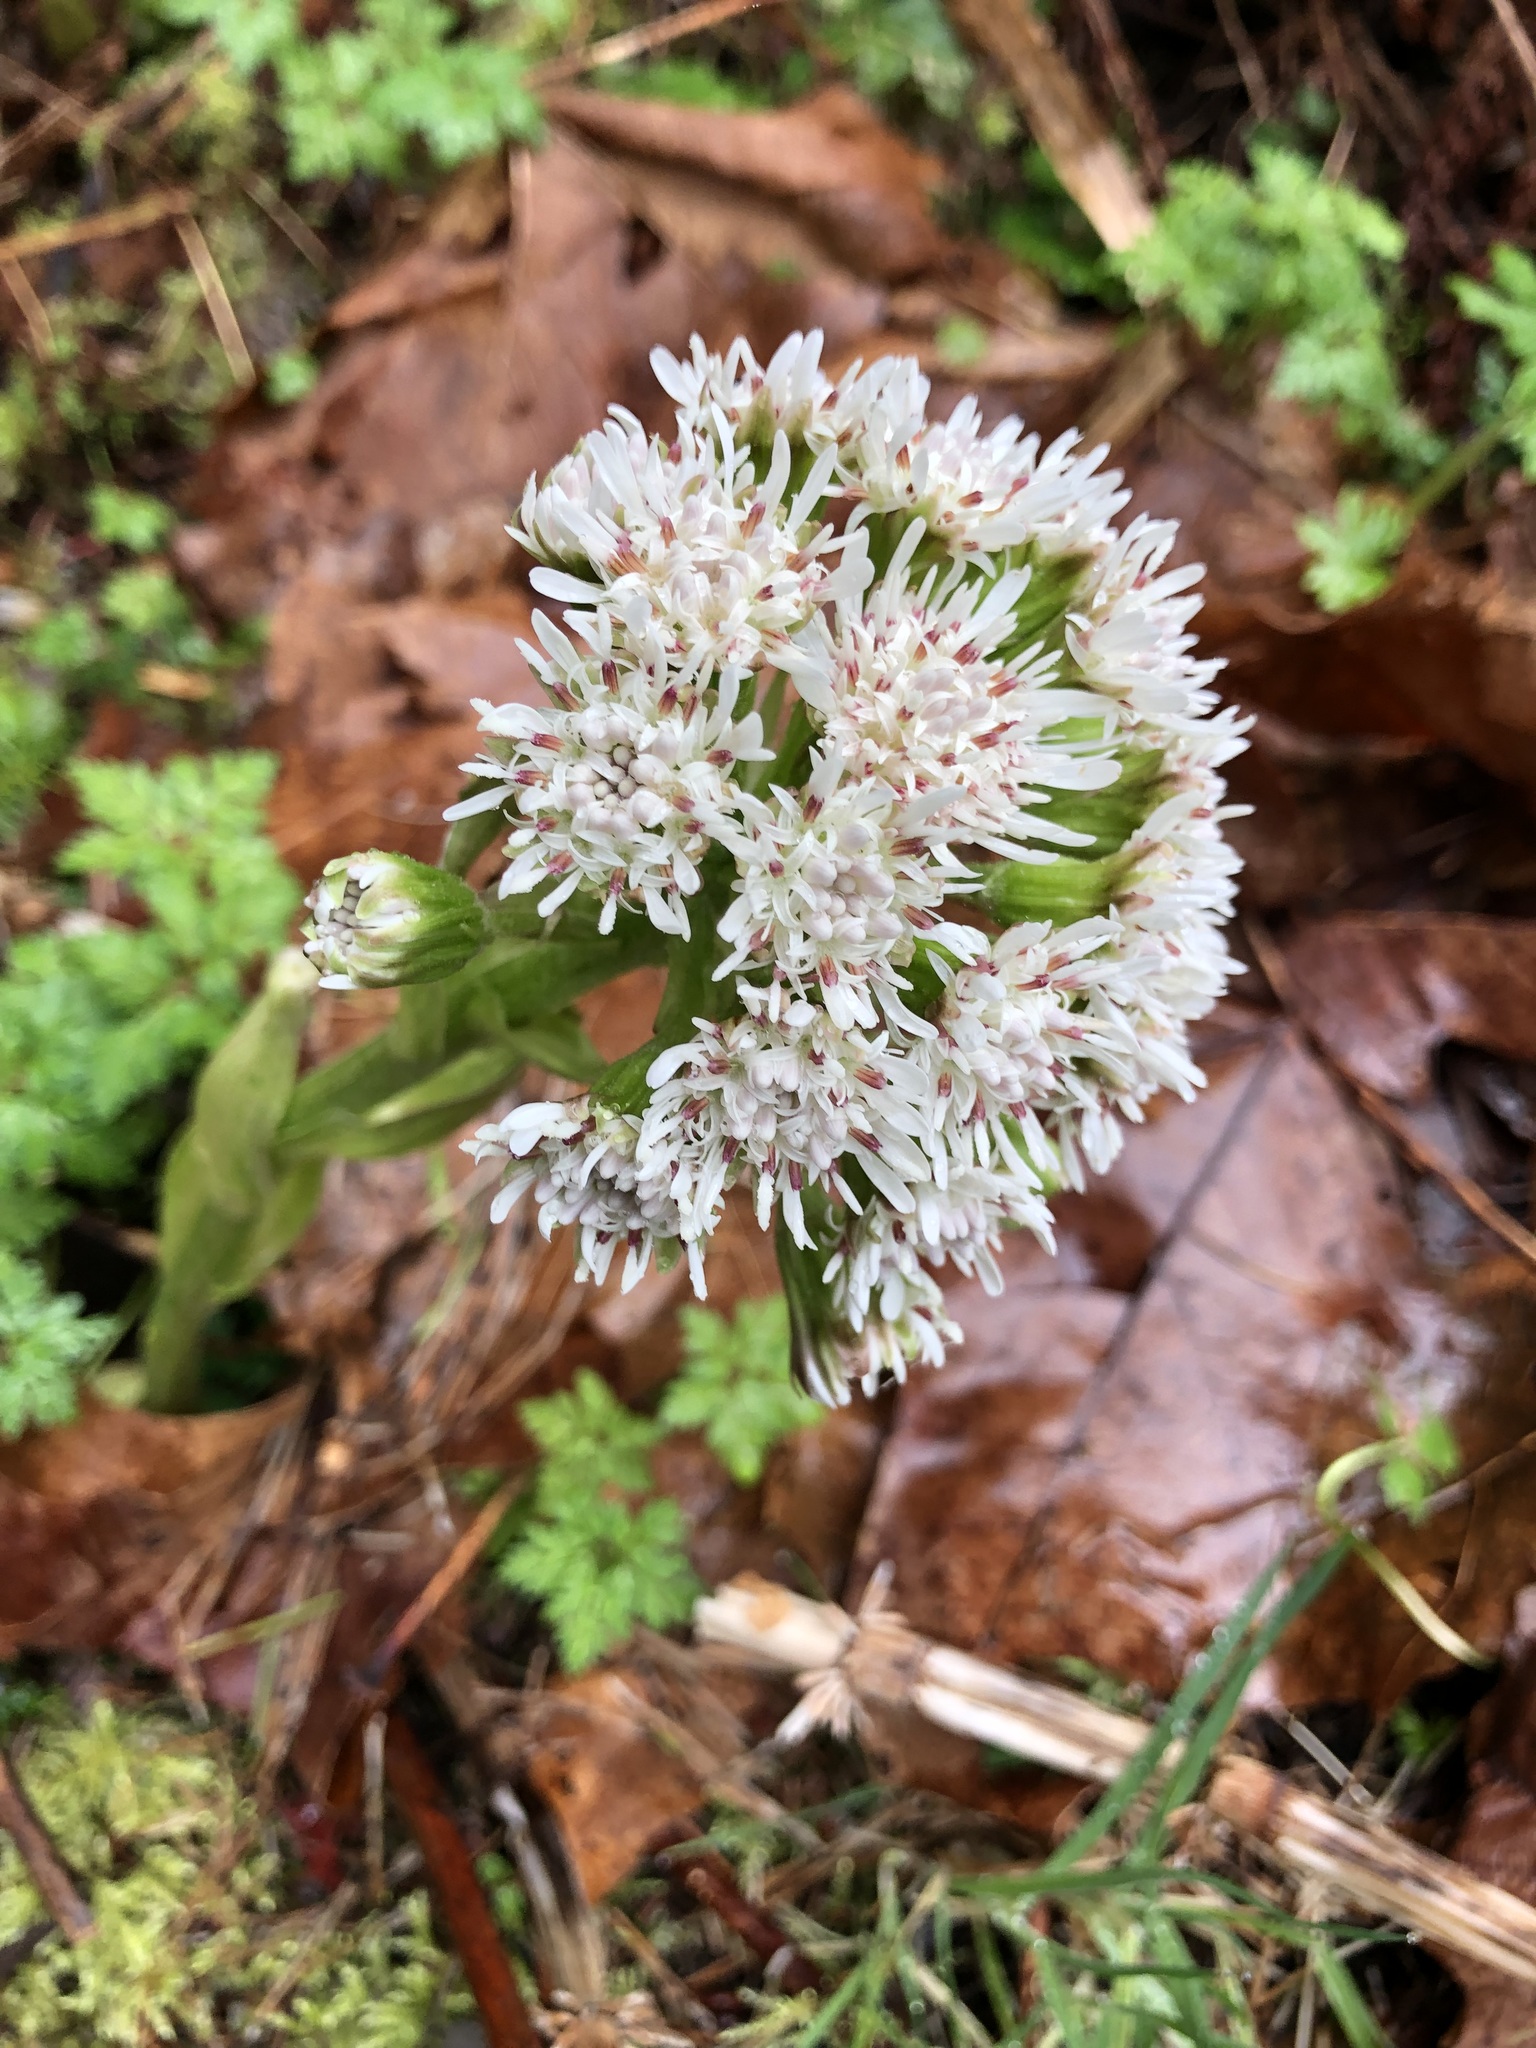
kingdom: Plantae
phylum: Tracheophyta
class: Magnoliopsida
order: Asterales
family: Asteraceae
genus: Petasites
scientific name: Petasites frigidus
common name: Arctic butterbur
